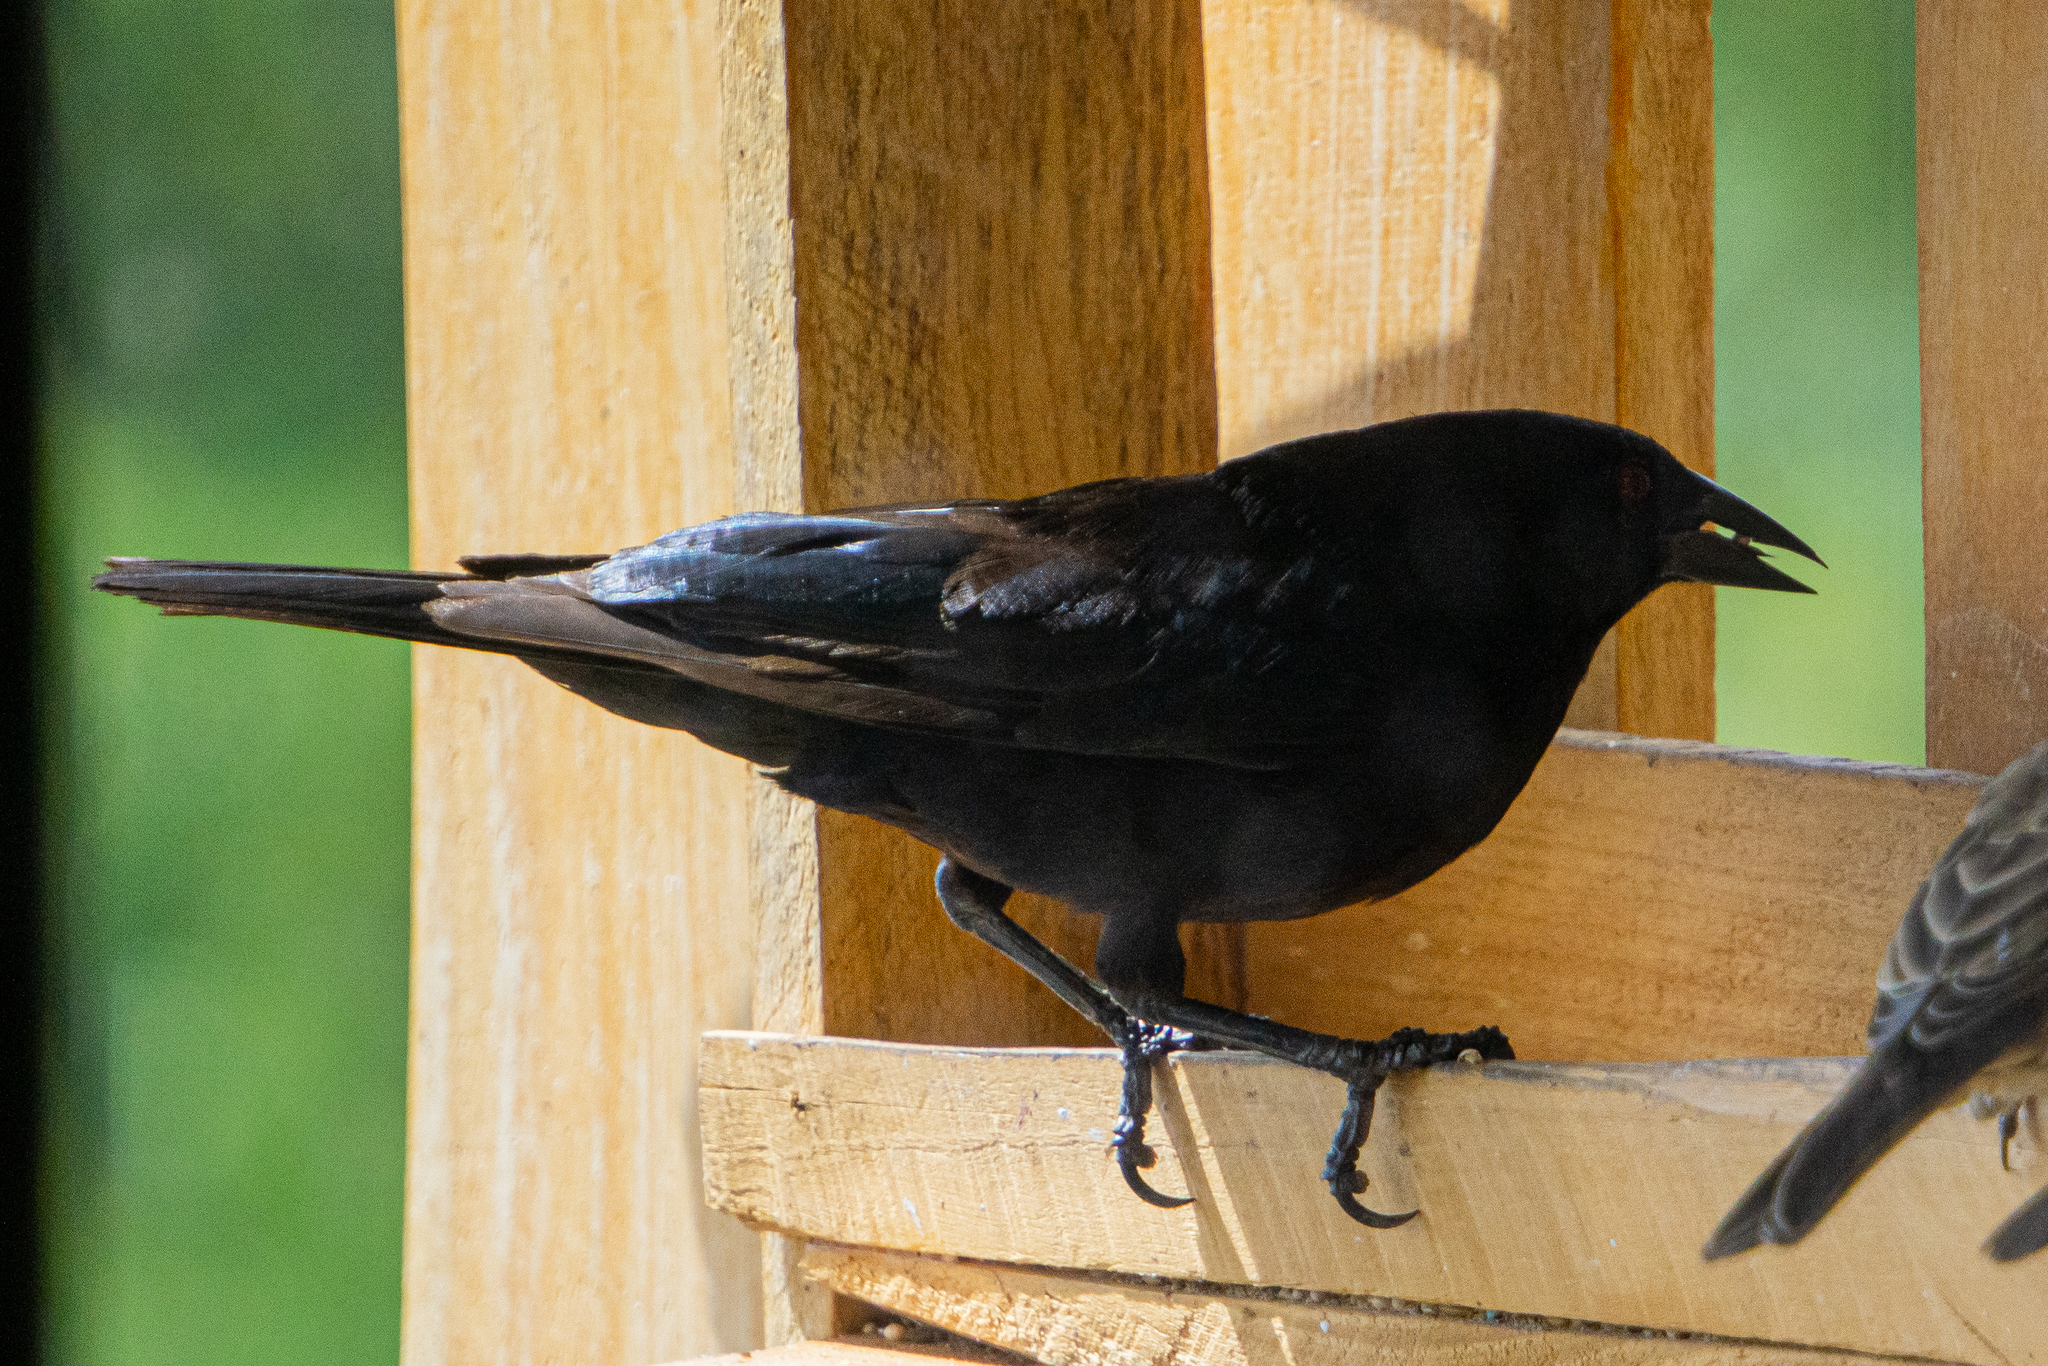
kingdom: Animalia
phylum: Chordata
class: Aves
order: Passeriformes
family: Icteridae
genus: Molothrus
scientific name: Molothrus aeneus
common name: Bronzed cowbird
